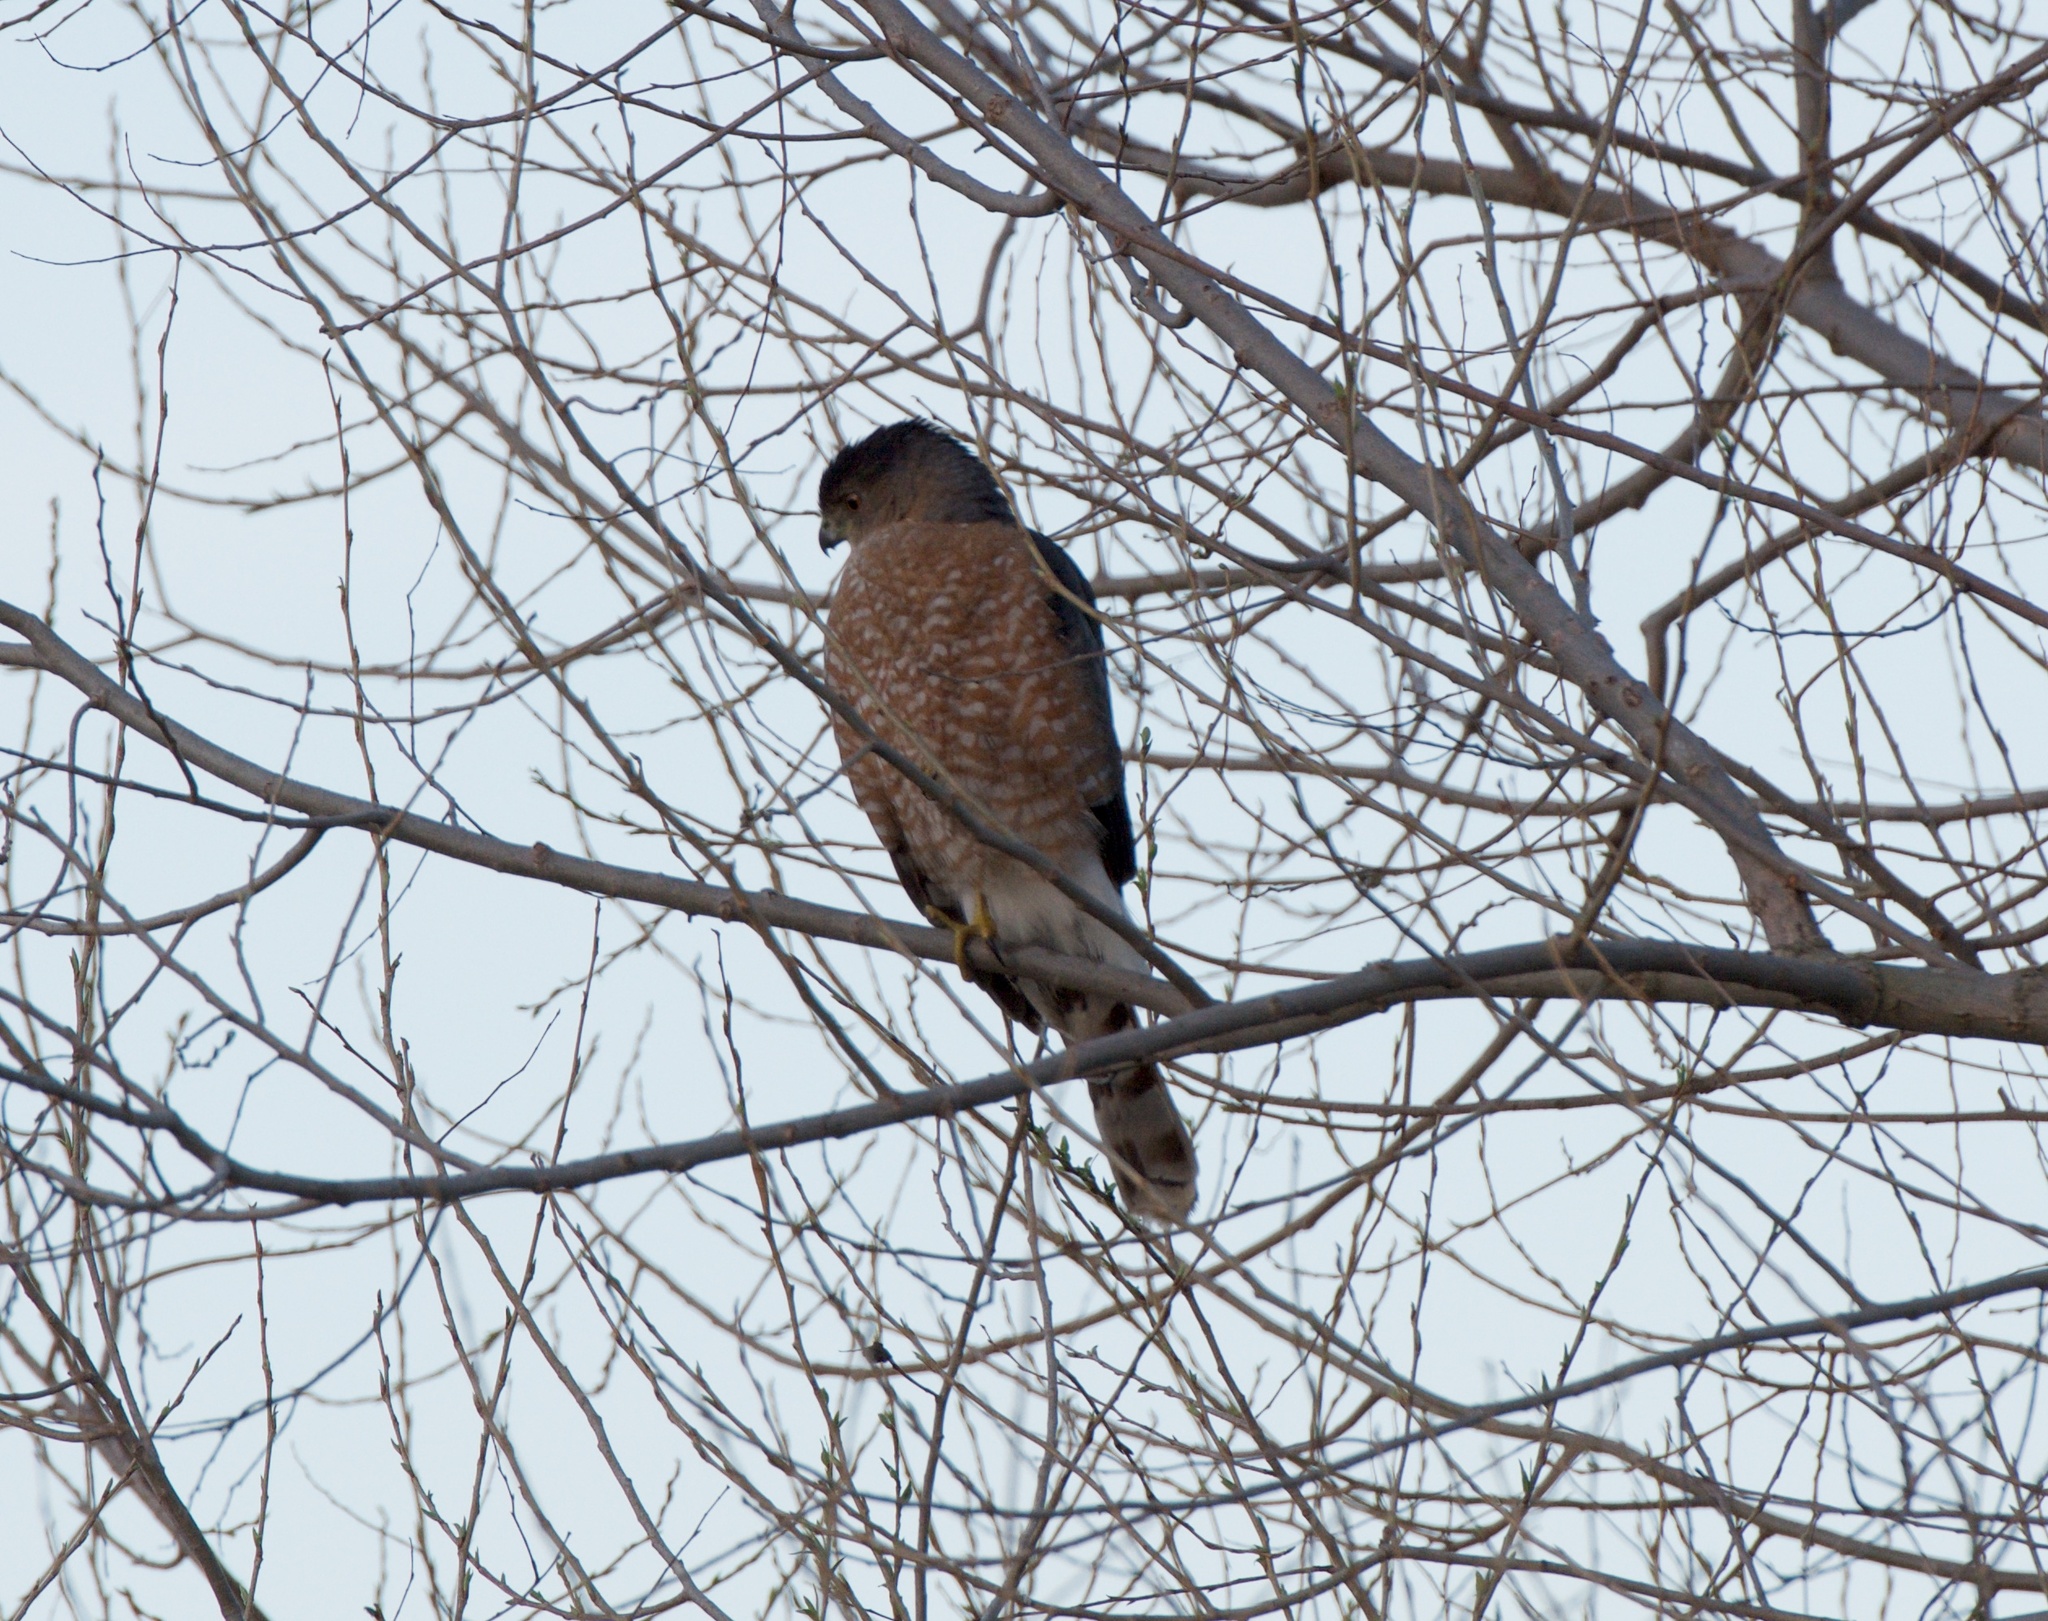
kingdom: Animalia
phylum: Chordata
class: Aves
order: Accipitriformes
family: Accipitridae
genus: Accipiter
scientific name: Accipiter cooperii
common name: Cooper's hawk
